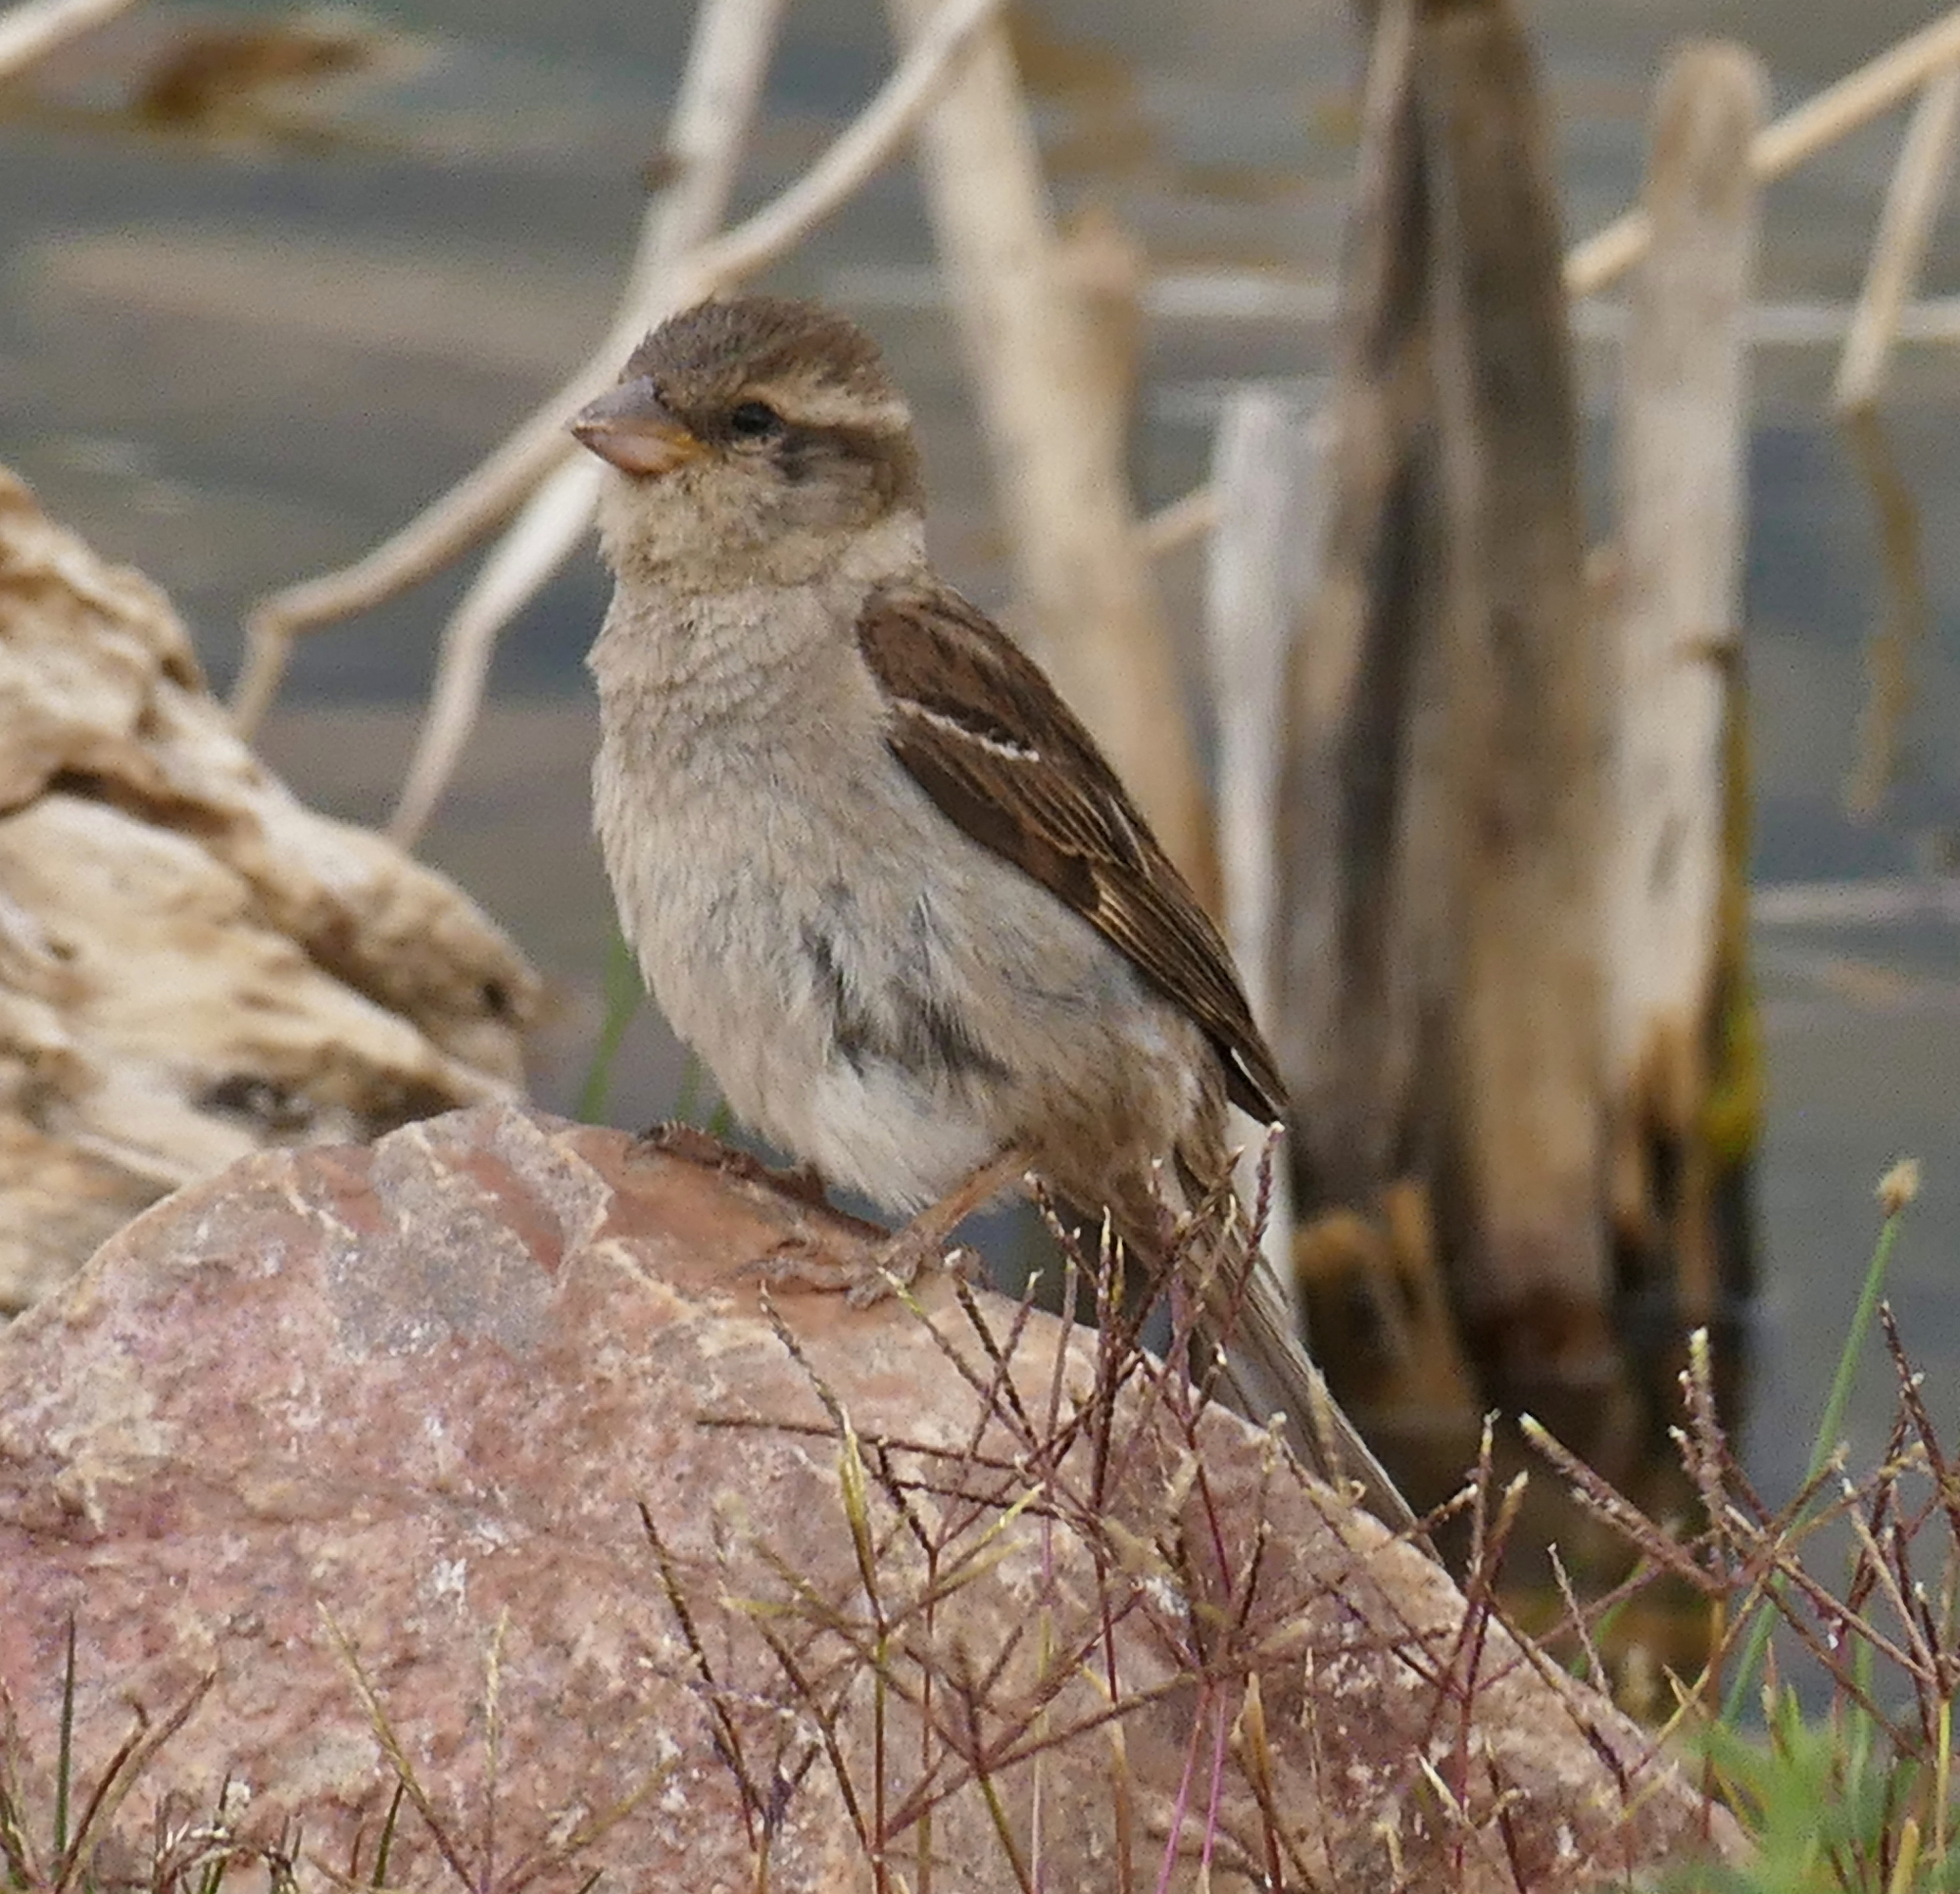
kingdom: Animalia
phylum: Chordata
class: Aves
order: Passeriformes
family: Passeridae
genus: Passer
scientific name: Passer domesticus
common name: House sparrow
